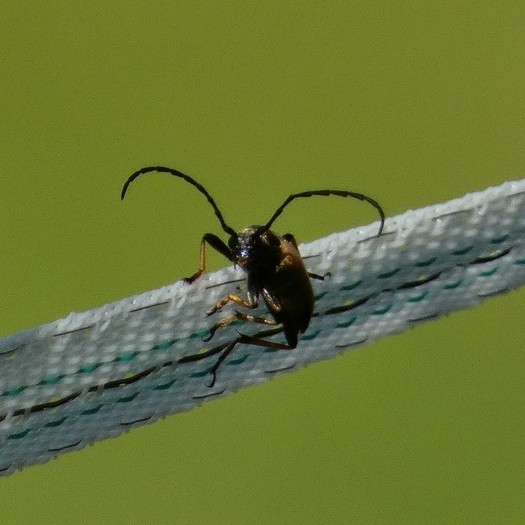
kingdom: Animalia
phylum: Arthropoda
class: Insecta
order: Coleoptera
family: Cerambycidae
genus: Stictoleptura
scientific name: Stictoleptura rubra
